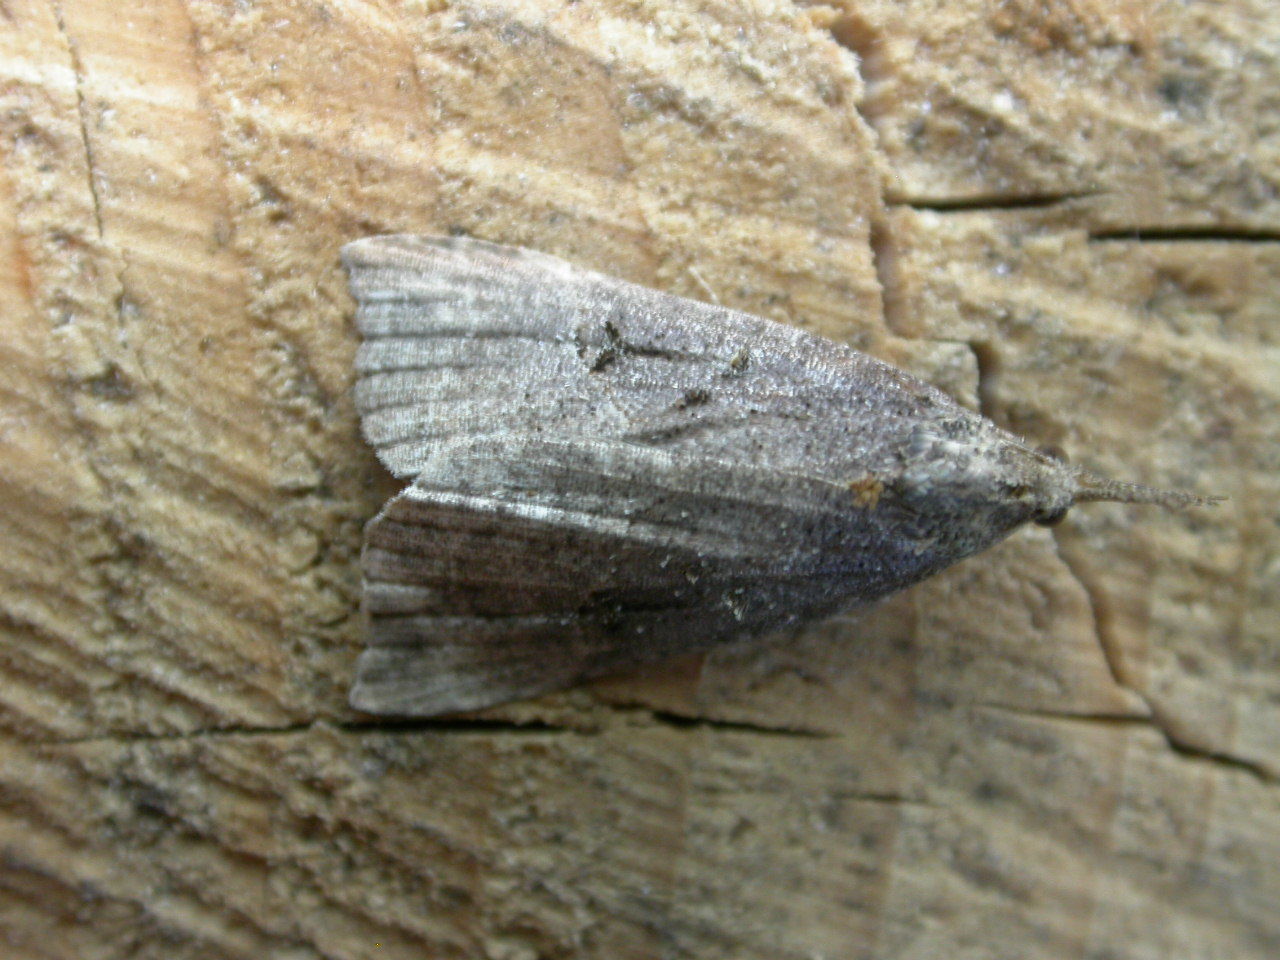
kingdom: Animalia
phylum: Arthropoda
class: Insecta
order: Lepidoptera
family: Erebidae
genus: Hypena
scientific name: Hypena rostralis
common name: Buttoned snout
